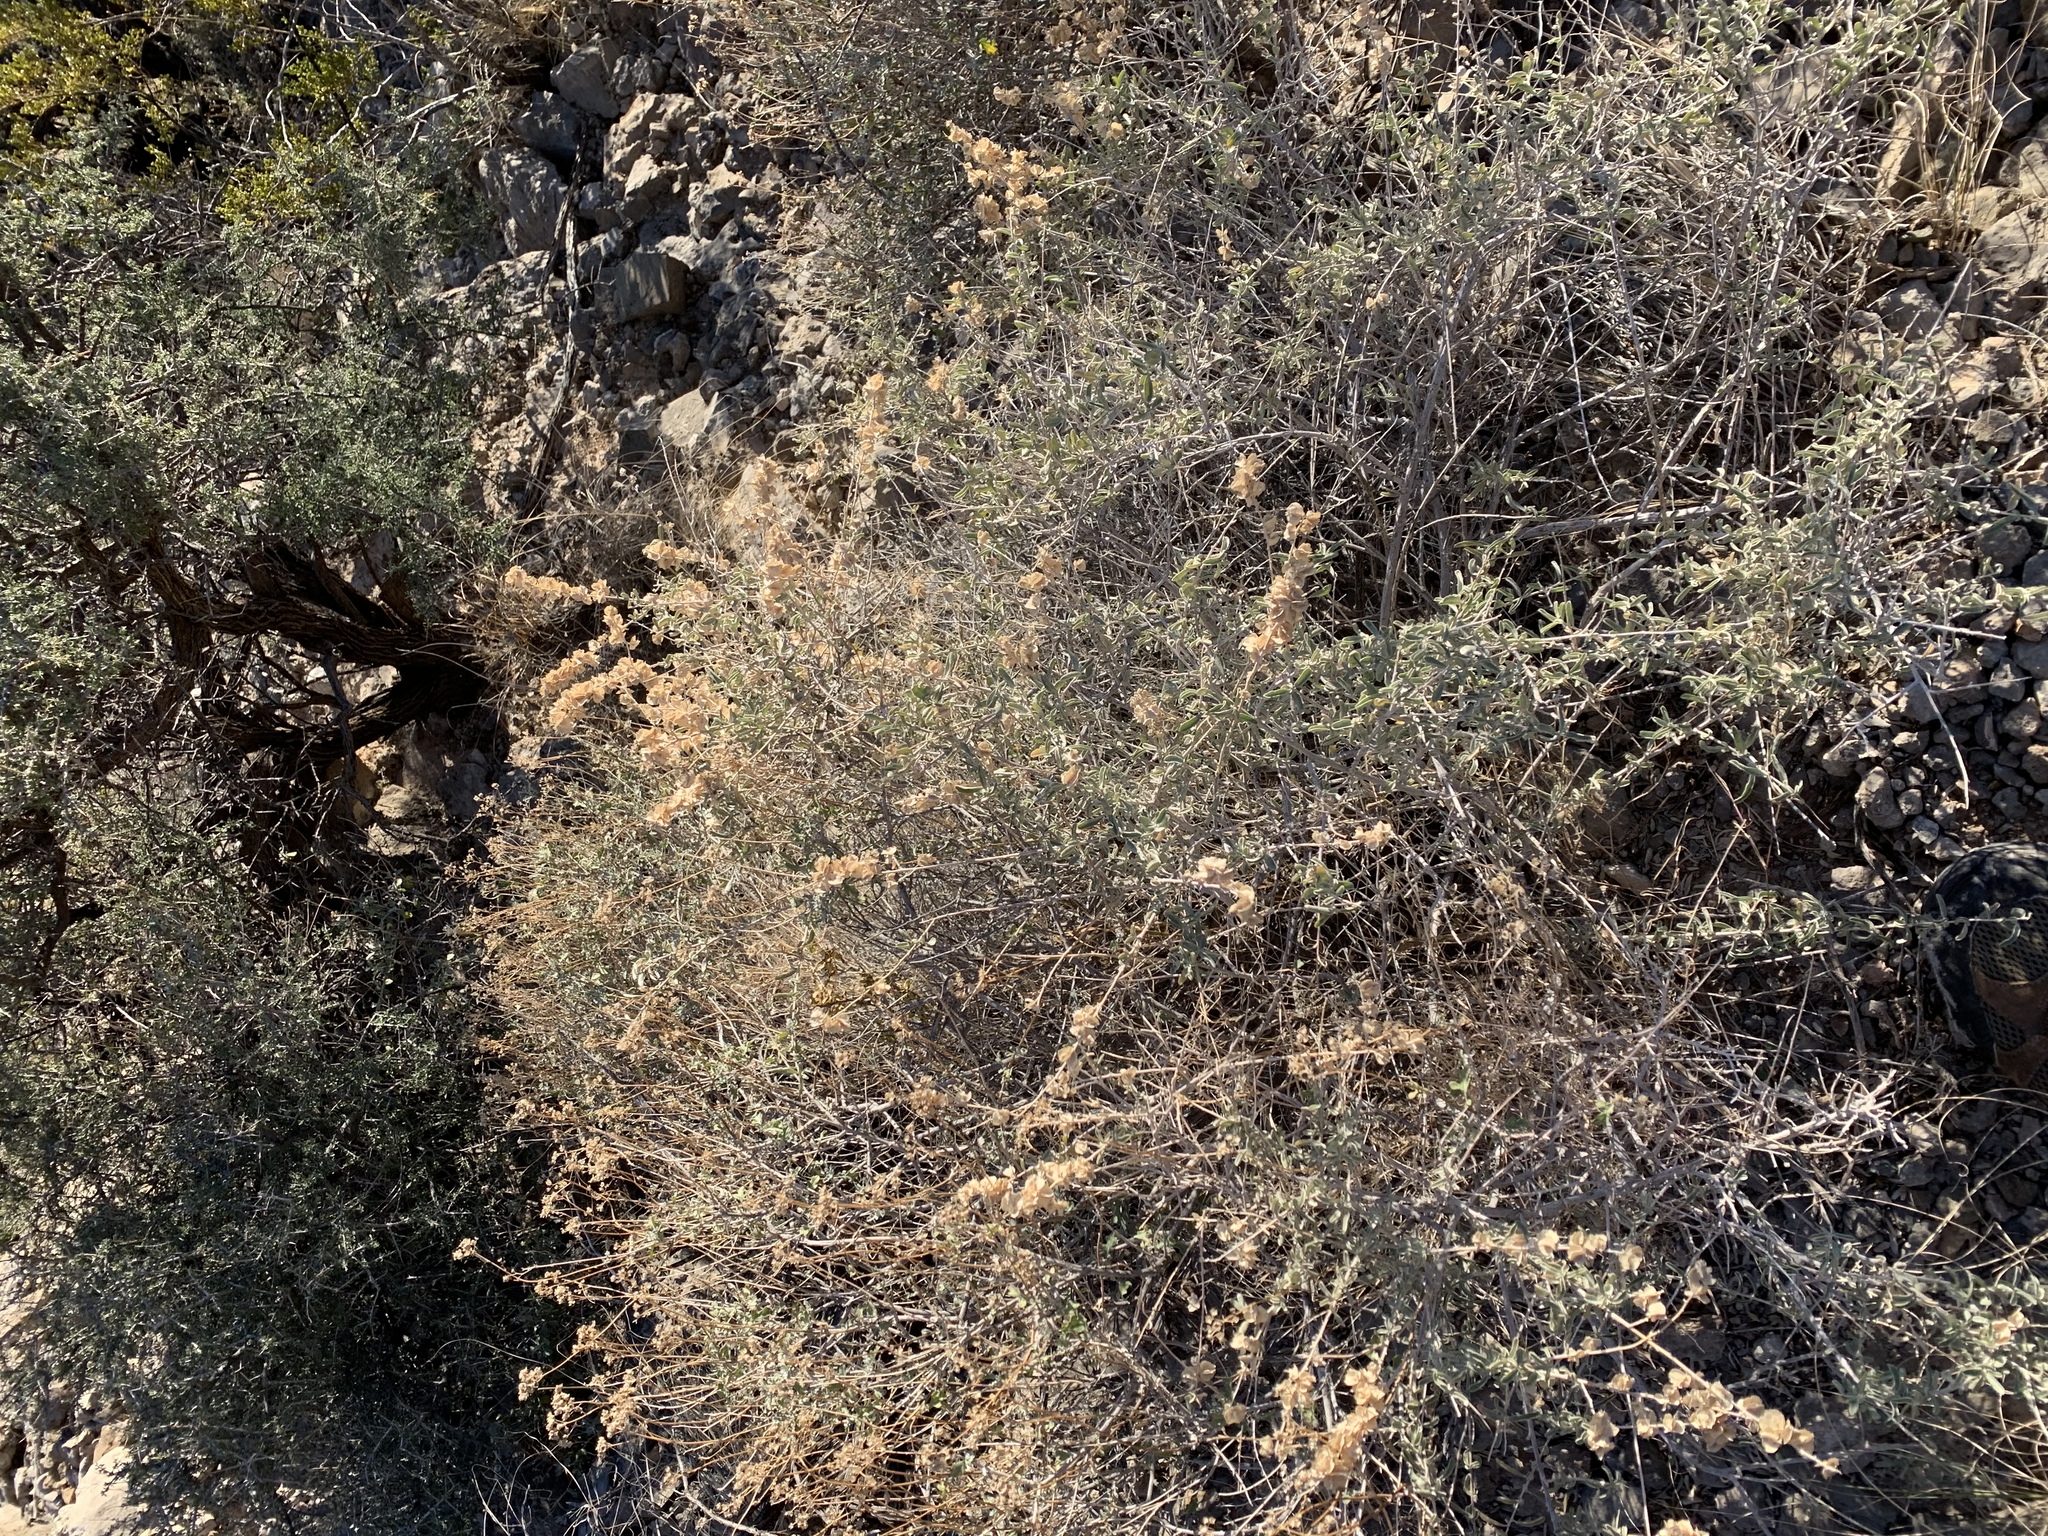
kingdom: Plantae
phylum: Tracheophyta
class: Magnoliopsida
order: Caryophyllales
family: Amaranthaceae
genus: Atriplex
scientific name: Atriplex canescens
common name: Four-wing saltbush
